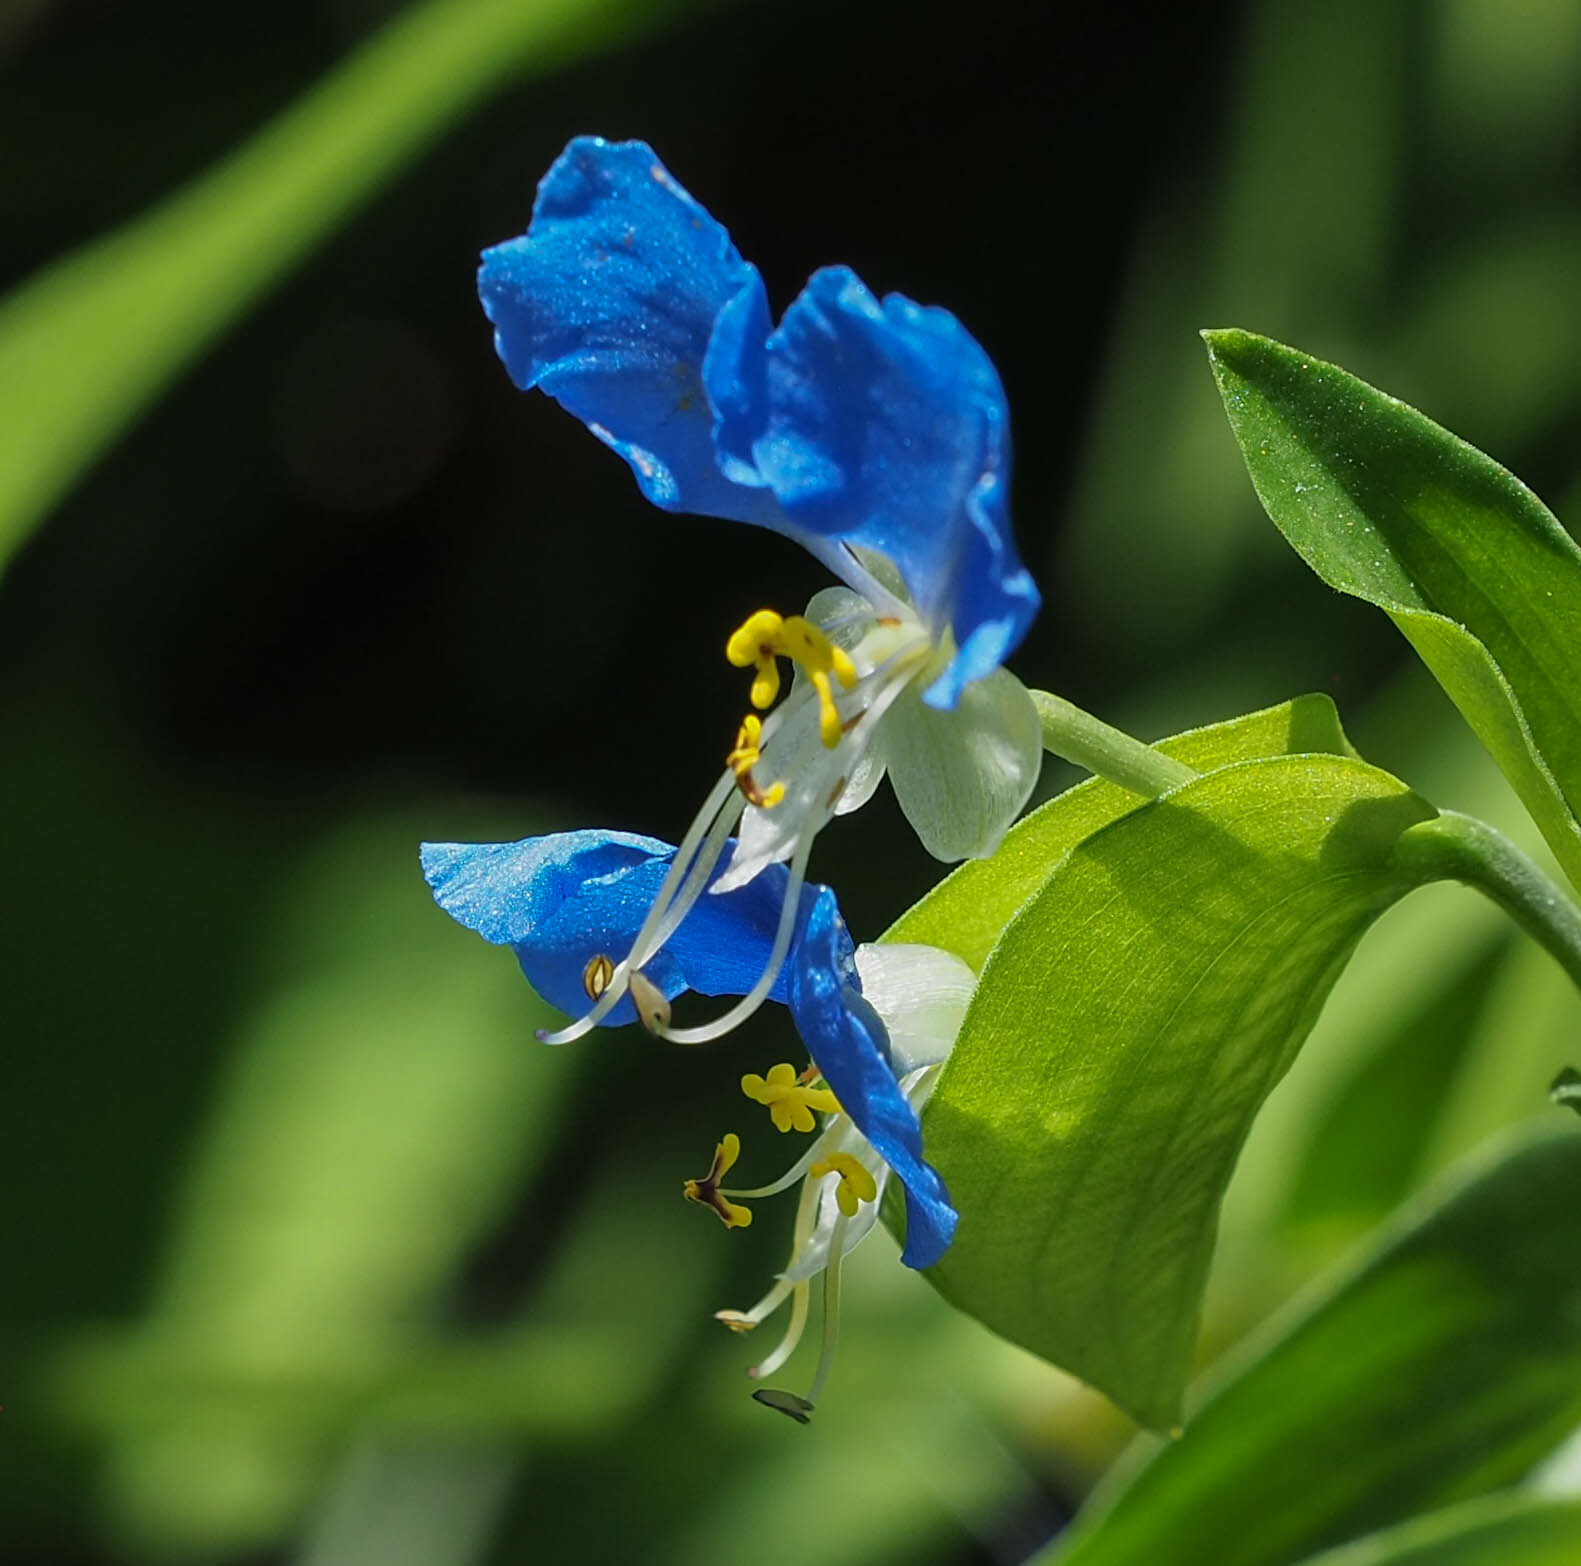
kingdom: Plantae
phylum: Tracheophyta
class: Liliopsida
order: Commelinales
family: Commelinaceae
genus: Commelina
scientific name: Commelina communis
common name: Asiatic dayflower
